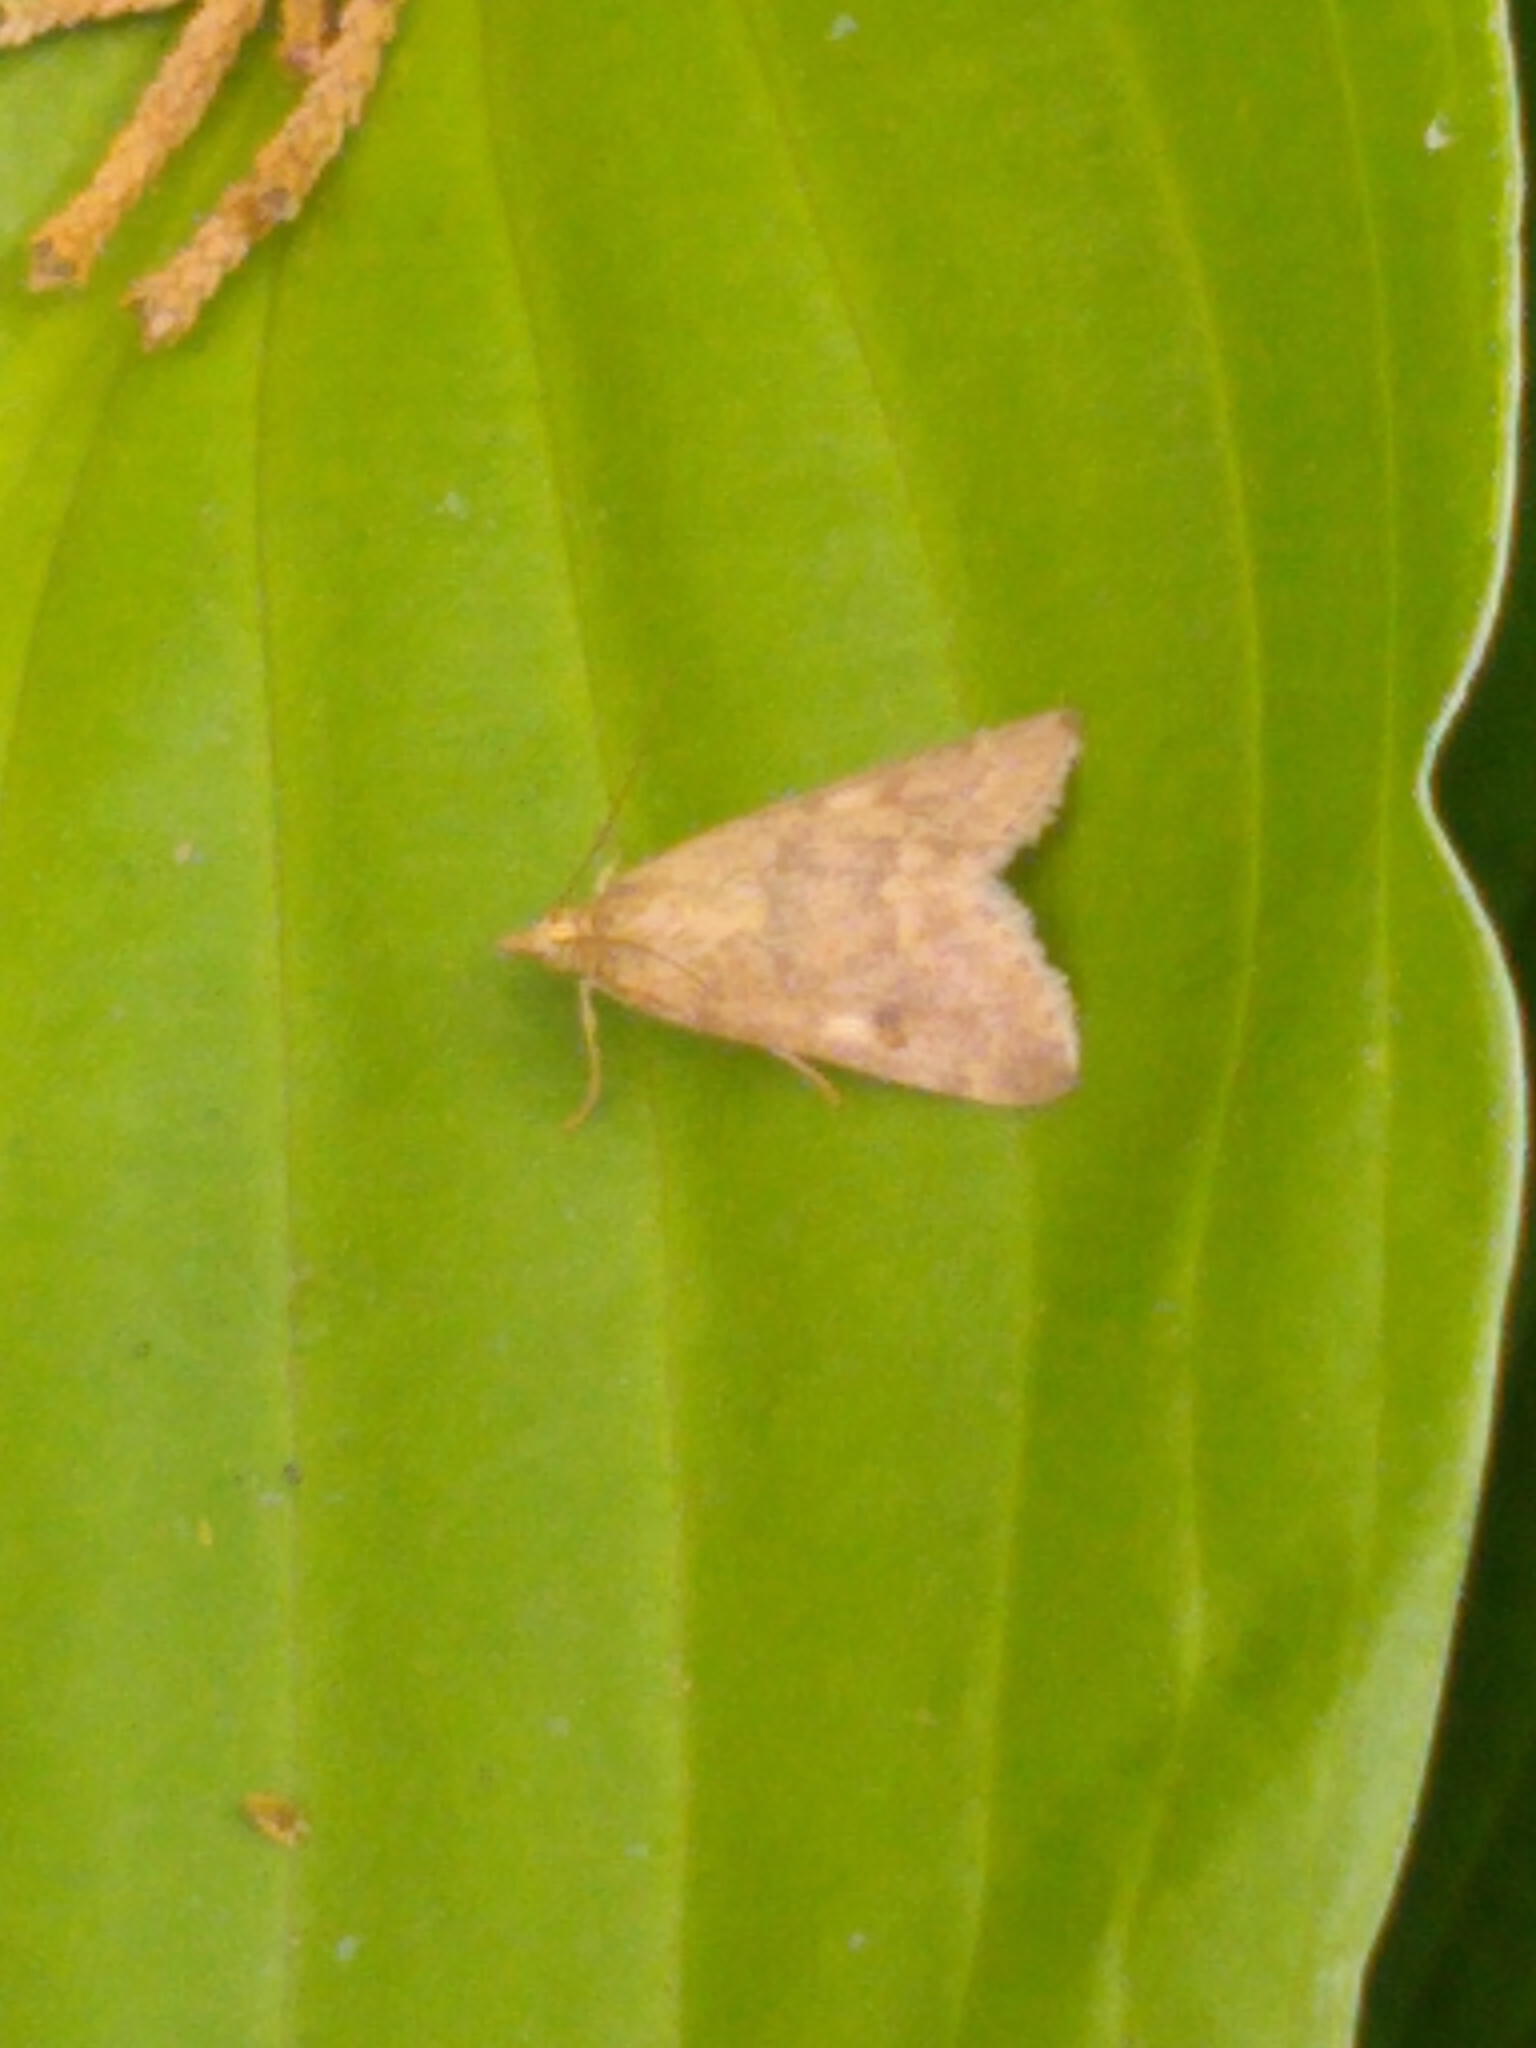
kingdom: Animalia
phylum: Arthropoda
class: Insecta
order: Lepidoptera
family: Crambidae
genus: Achyra
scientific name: Achyra rantalis
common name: Garden webworm
